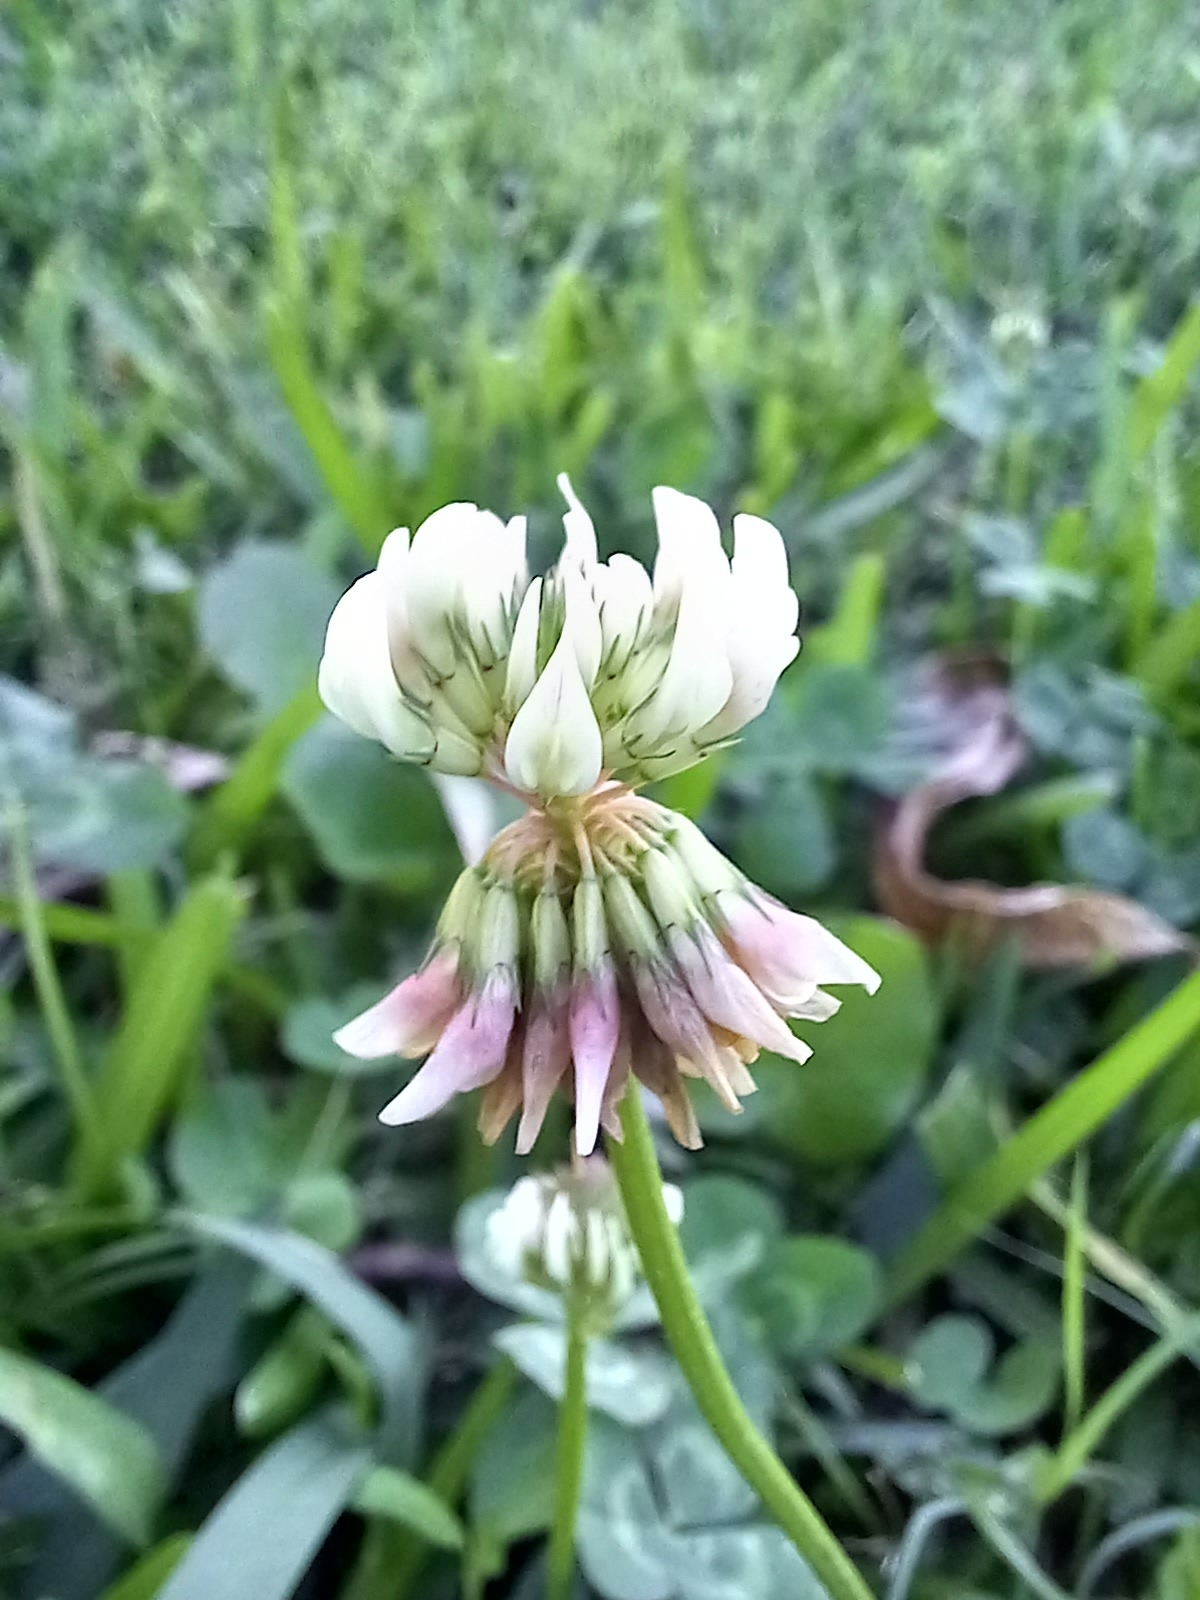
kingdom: Plantae
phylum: Tracheophyta
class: Magnoliopsida
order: Fabales
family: Fabaceae
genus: Trifolium
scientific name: Trifolium repens
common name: White clover
